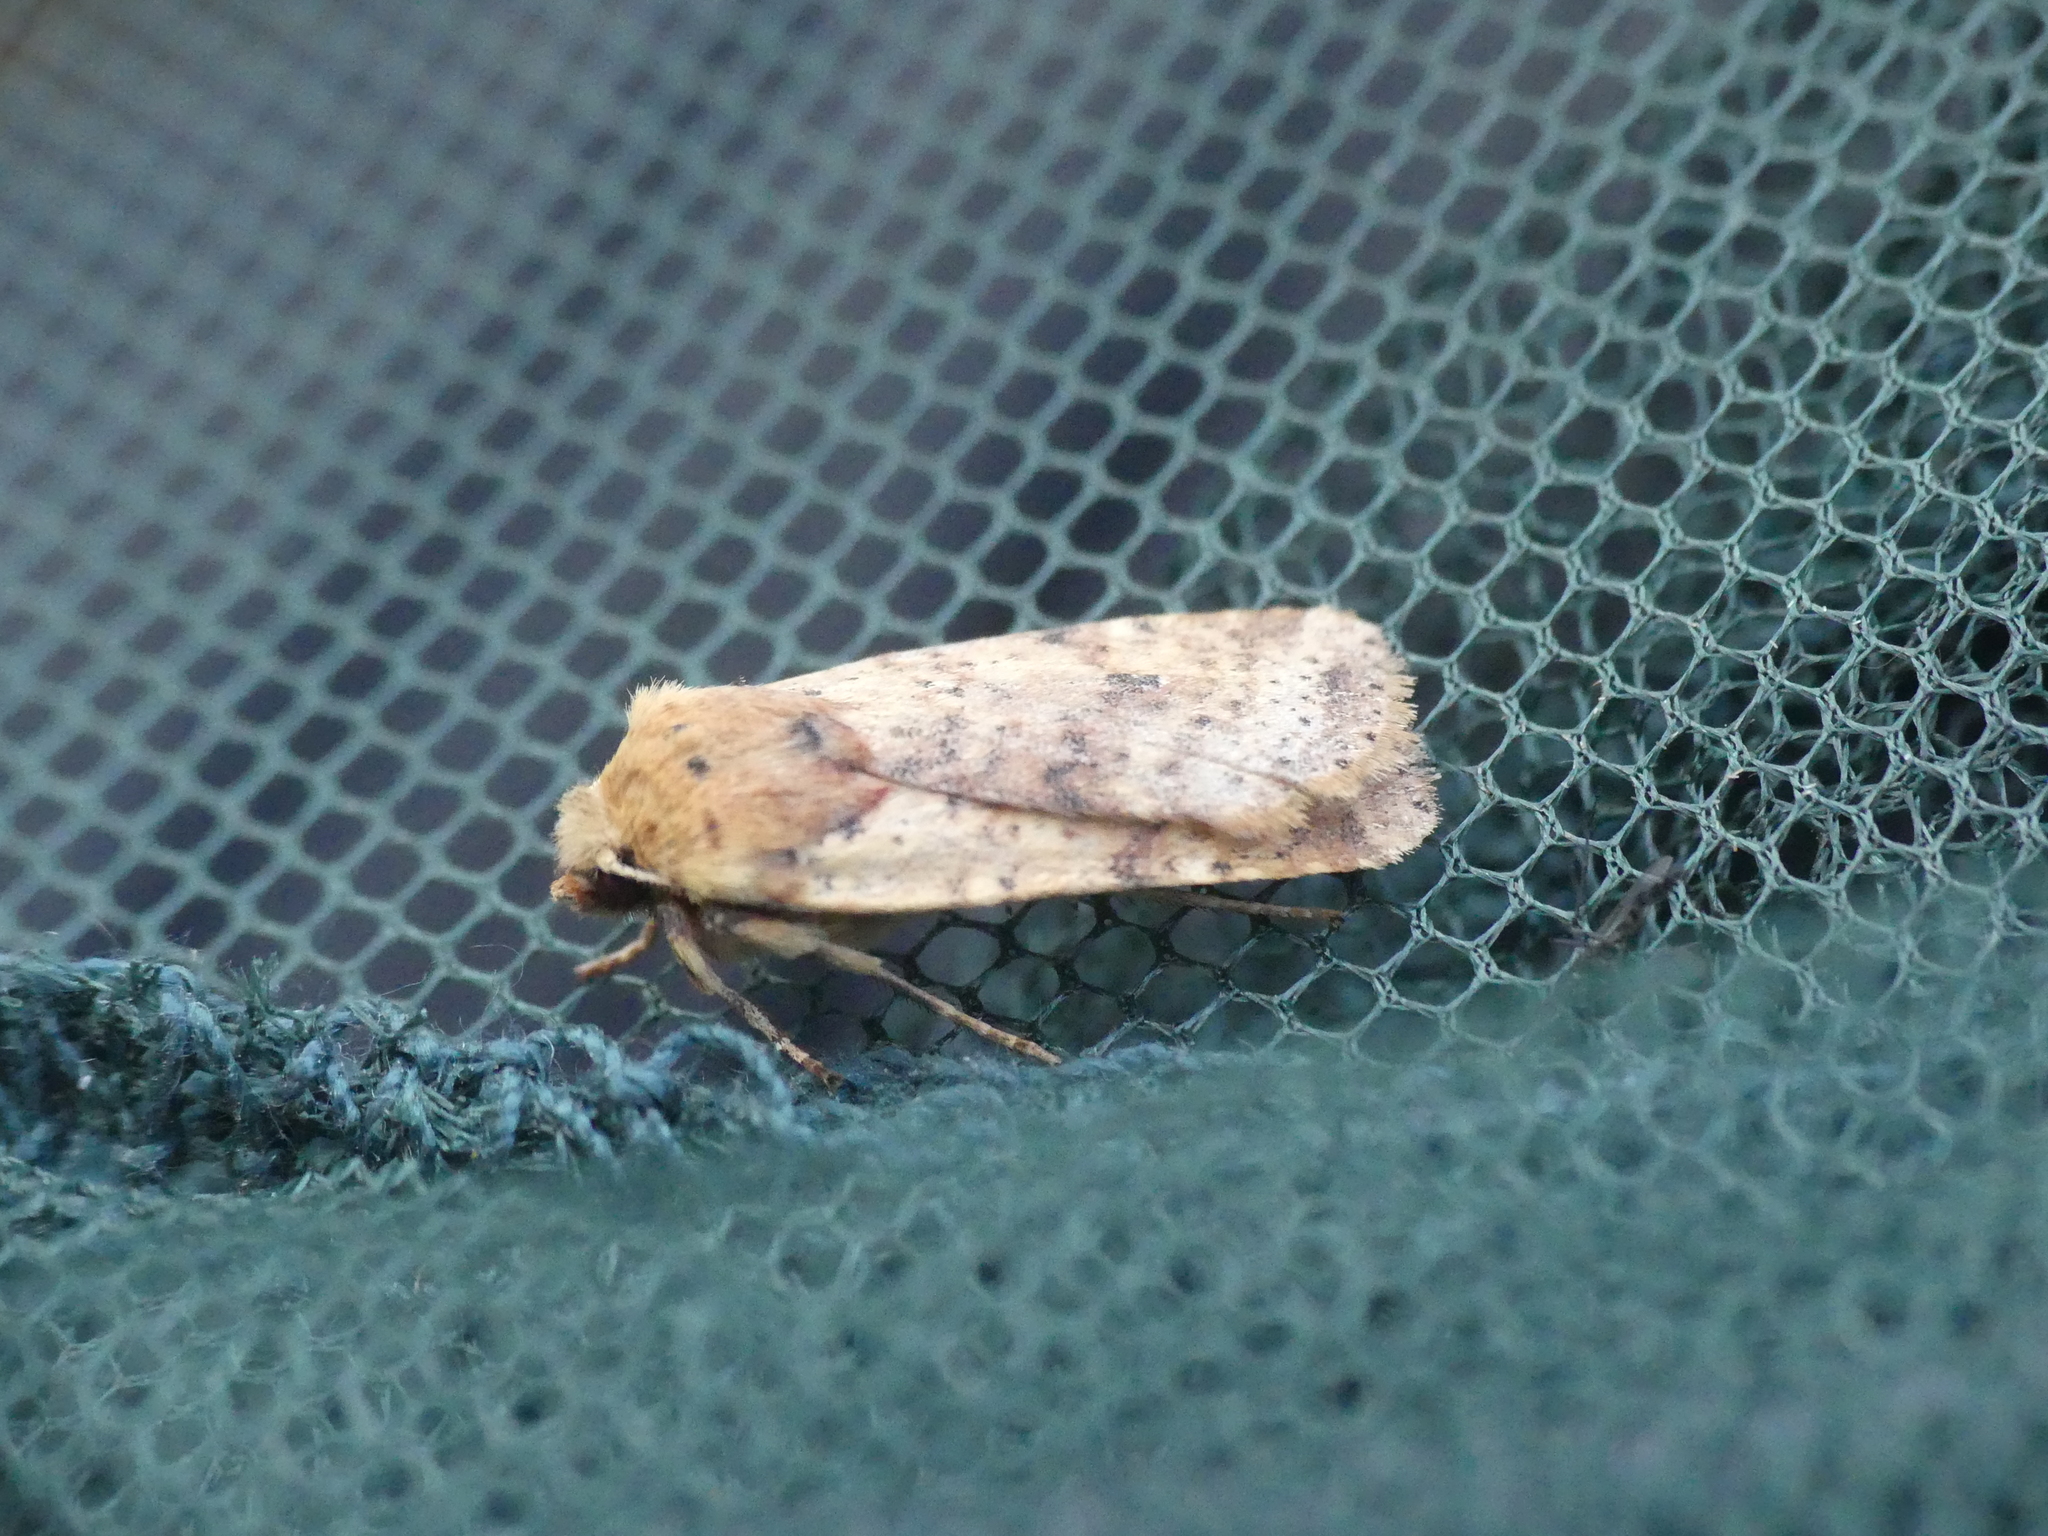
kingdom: Animalia
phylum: Arthropoda
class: Insecta
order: Lepidoptera
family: Noctuidae
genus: Conistra
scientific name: Conistra rubiginea
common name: Dotted chestnut
